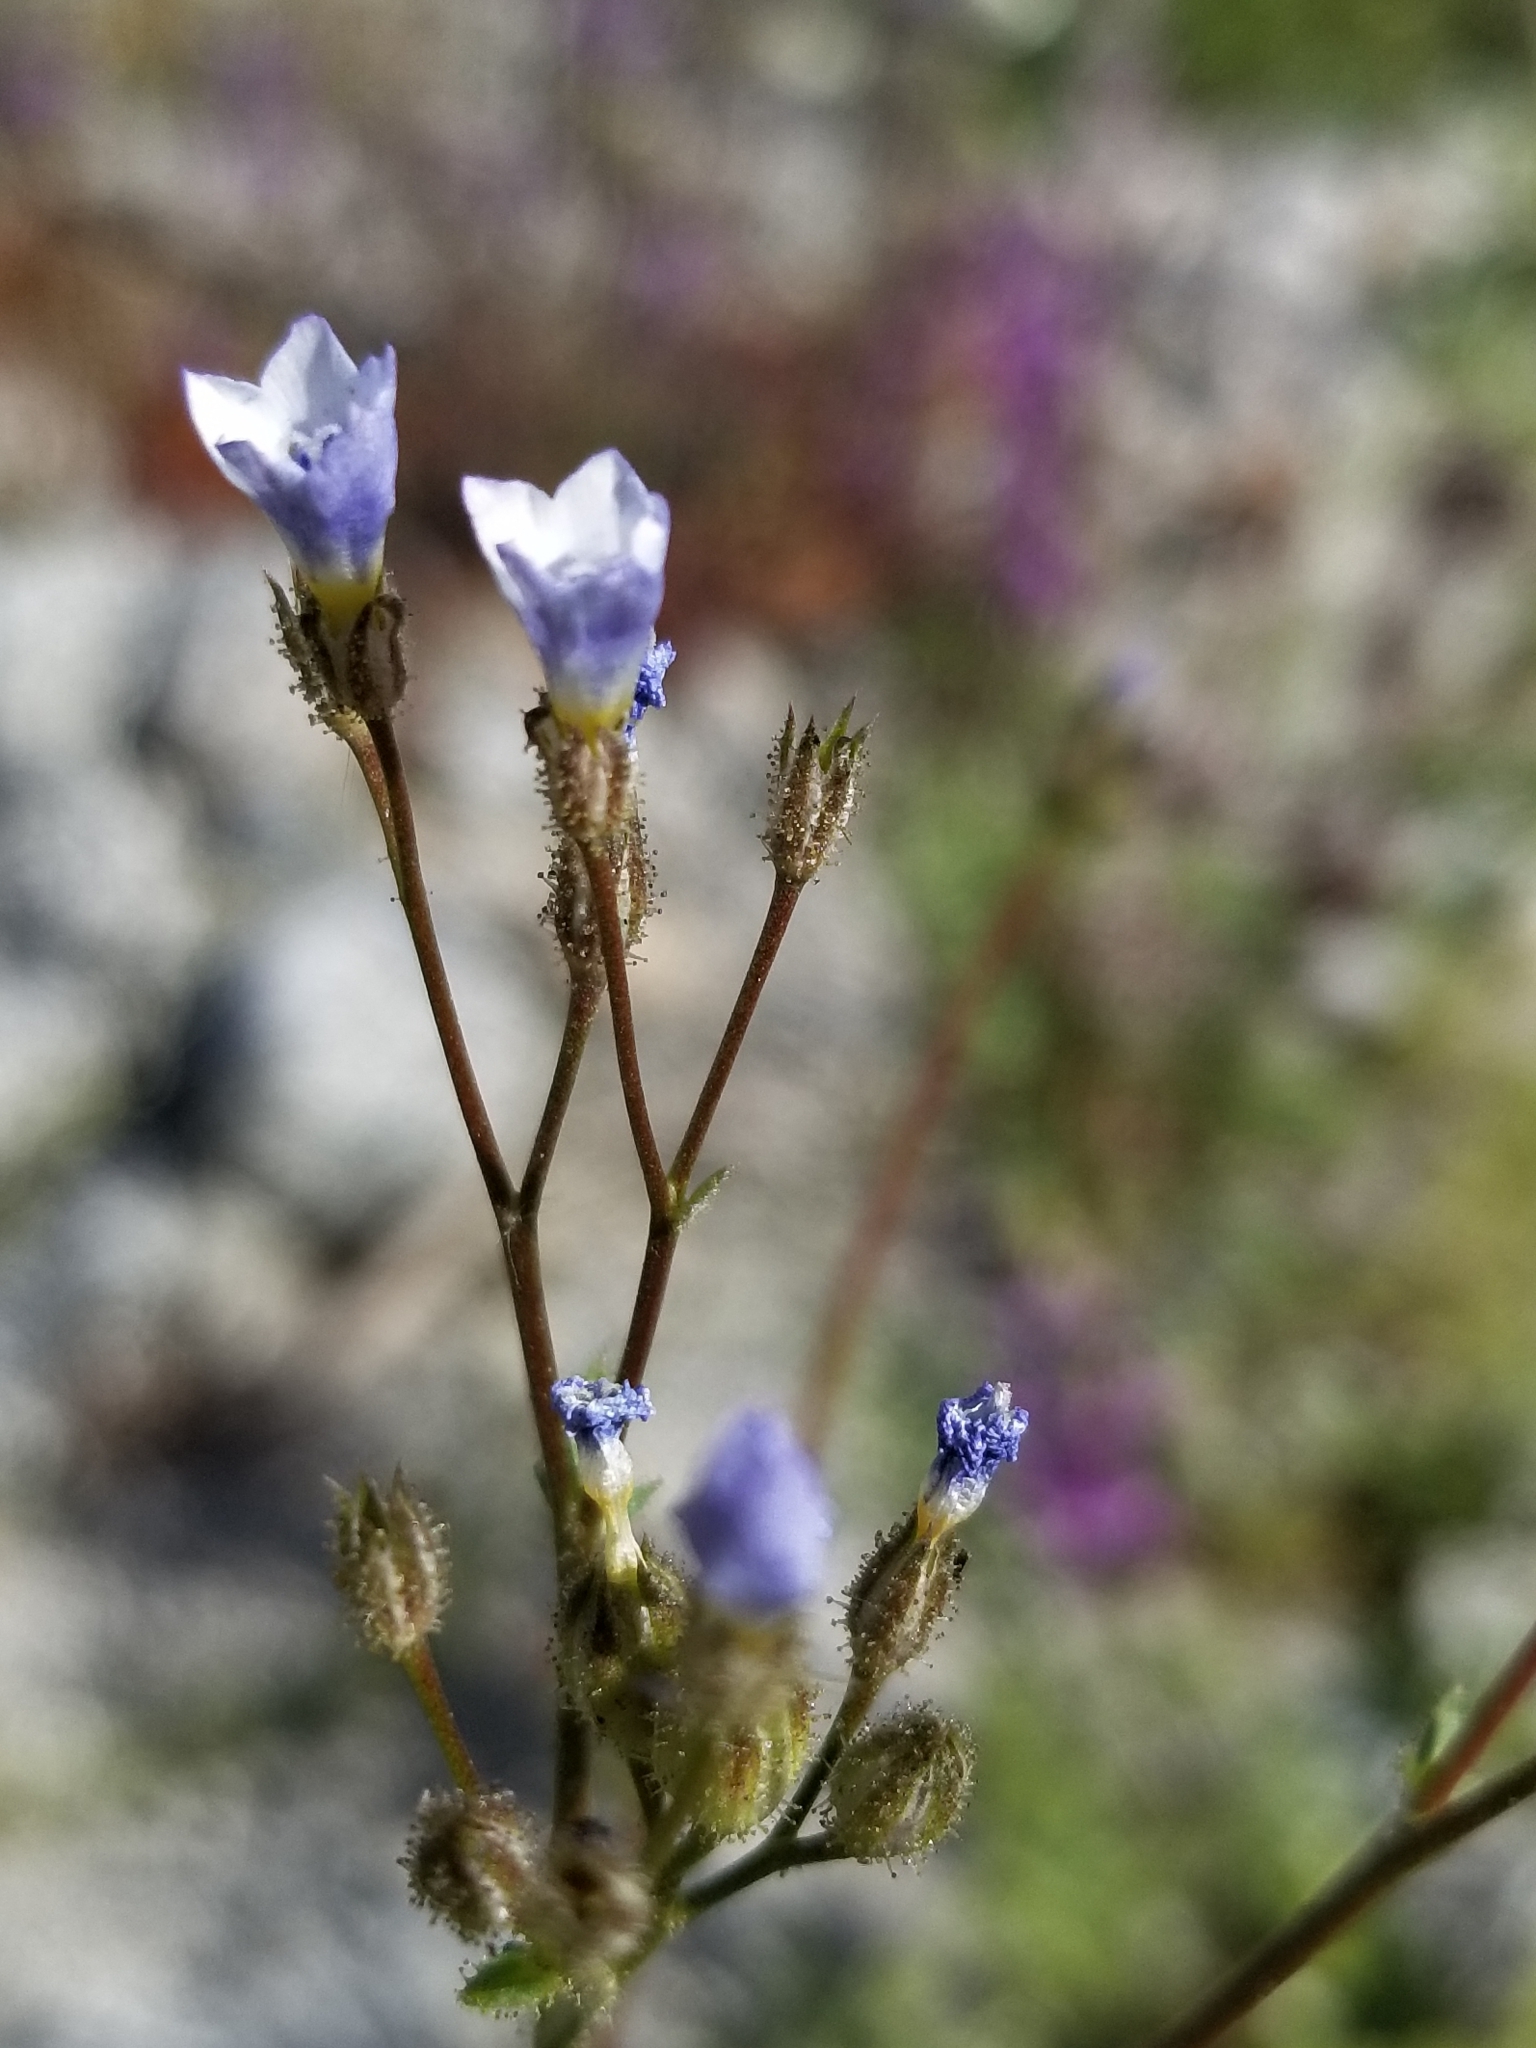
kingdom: Plantae
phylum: Tracheophyta
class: Magnoliopsida
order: Ericales
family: Polemoniaceae
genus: Gilia
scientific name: Gilia stellata
